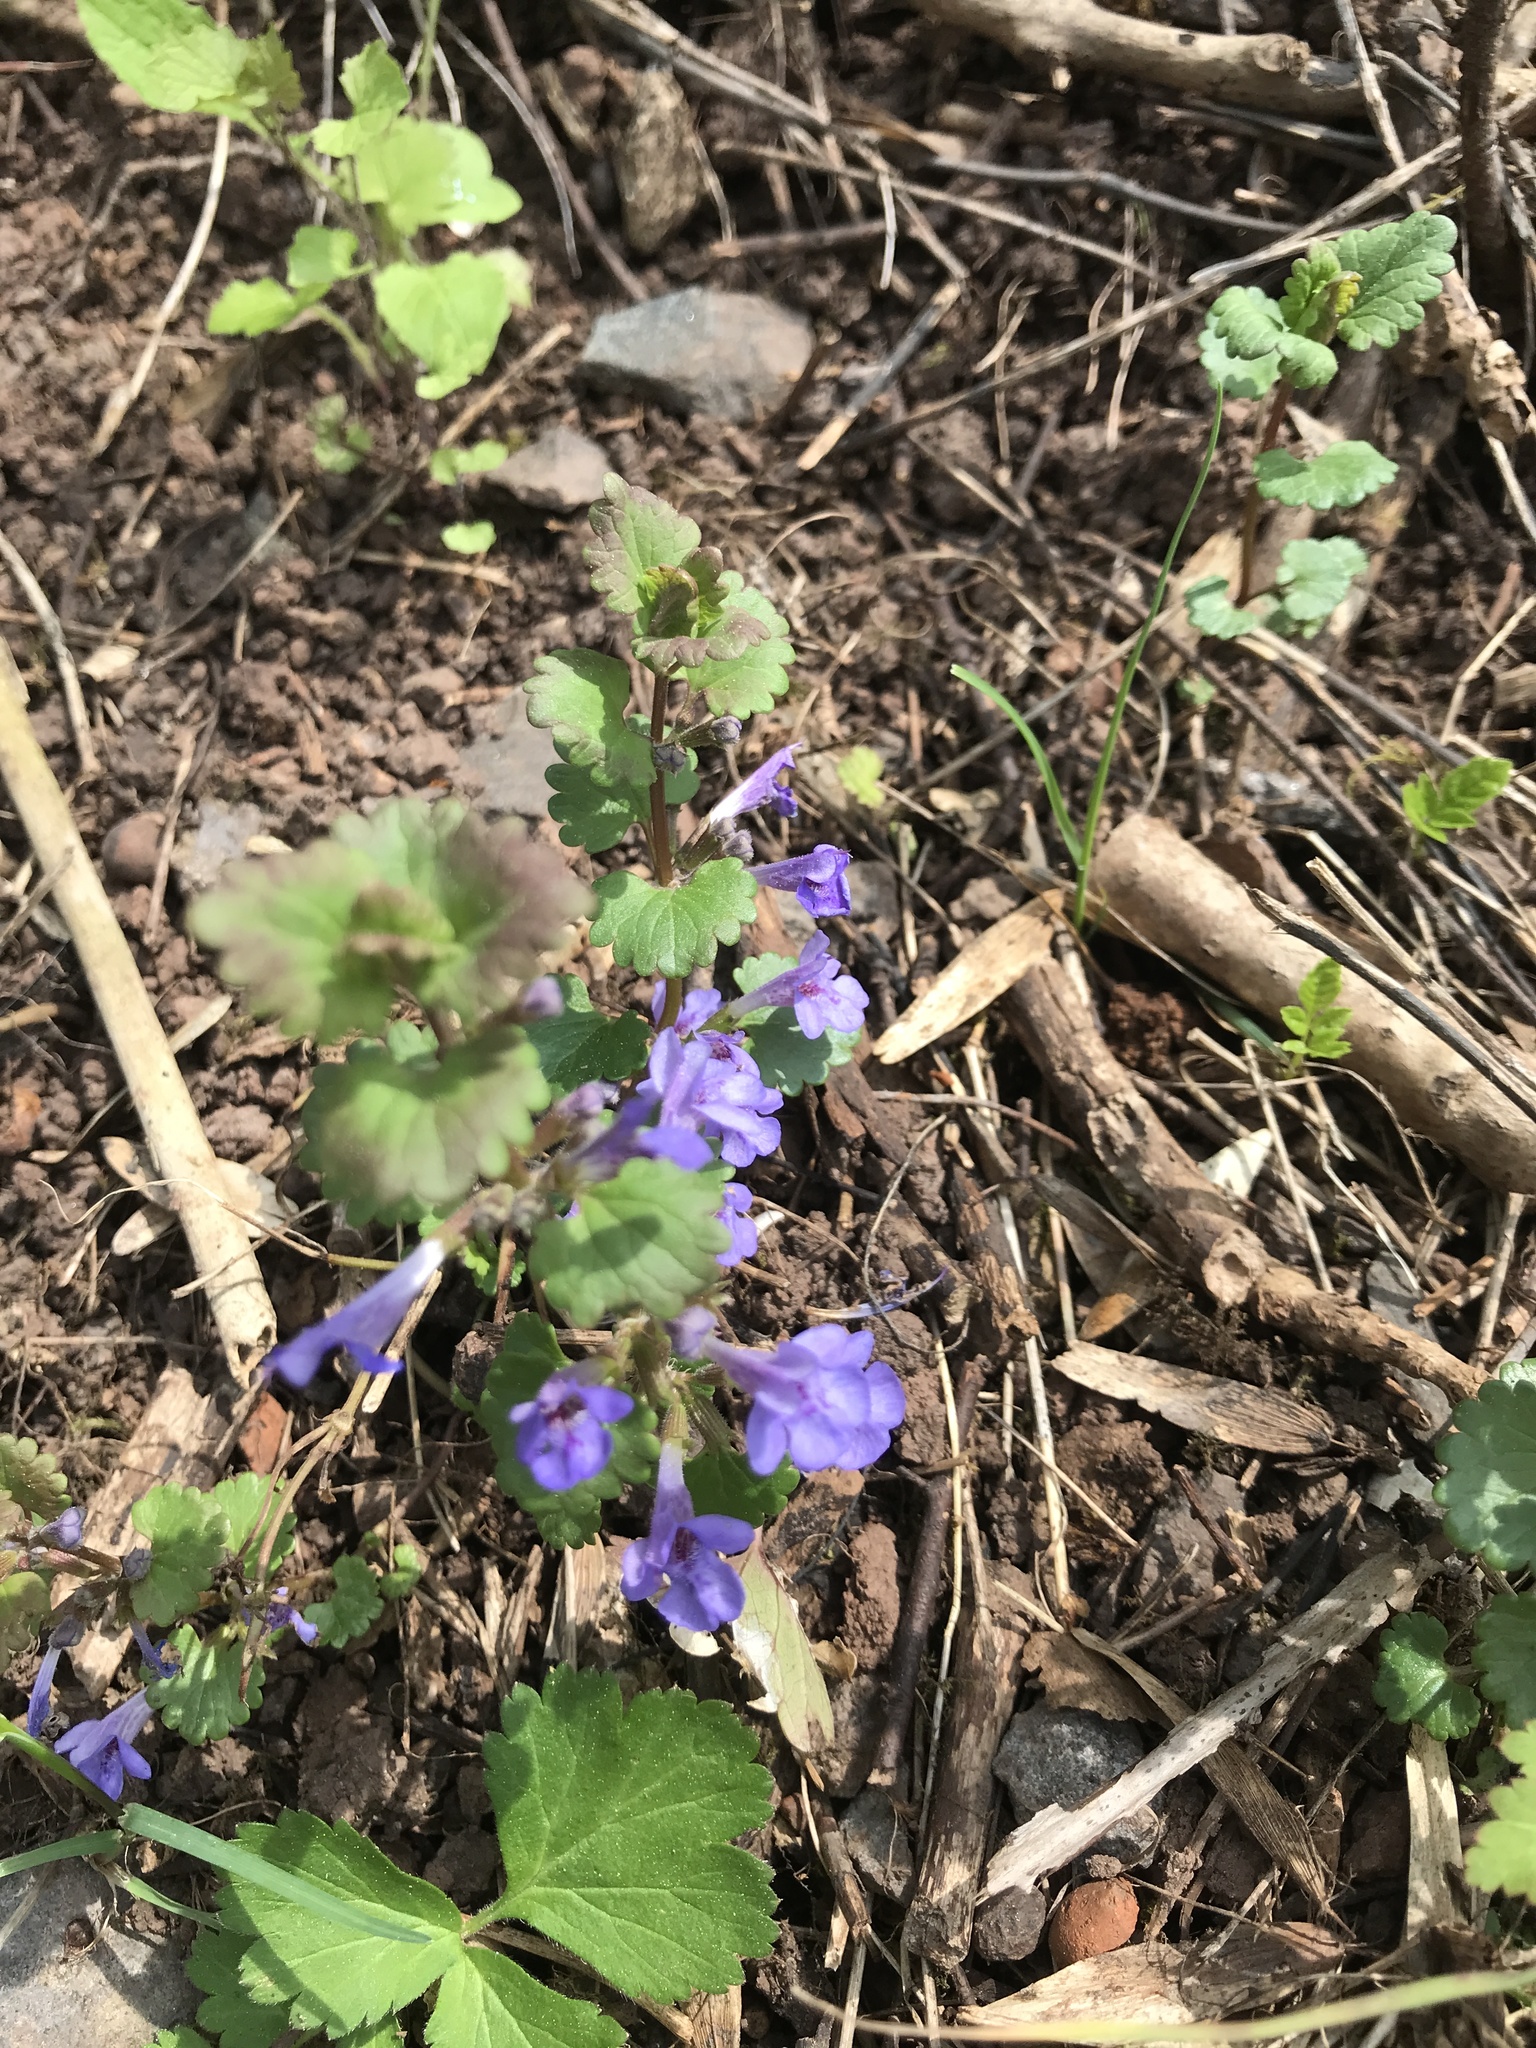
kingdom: Plantae
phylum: Tracheophyta
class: Magnoliopsida
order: Lamiales
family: Lamiaceae
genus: Glechoma
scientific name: Glechoma hederacea
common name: Ground ivy
